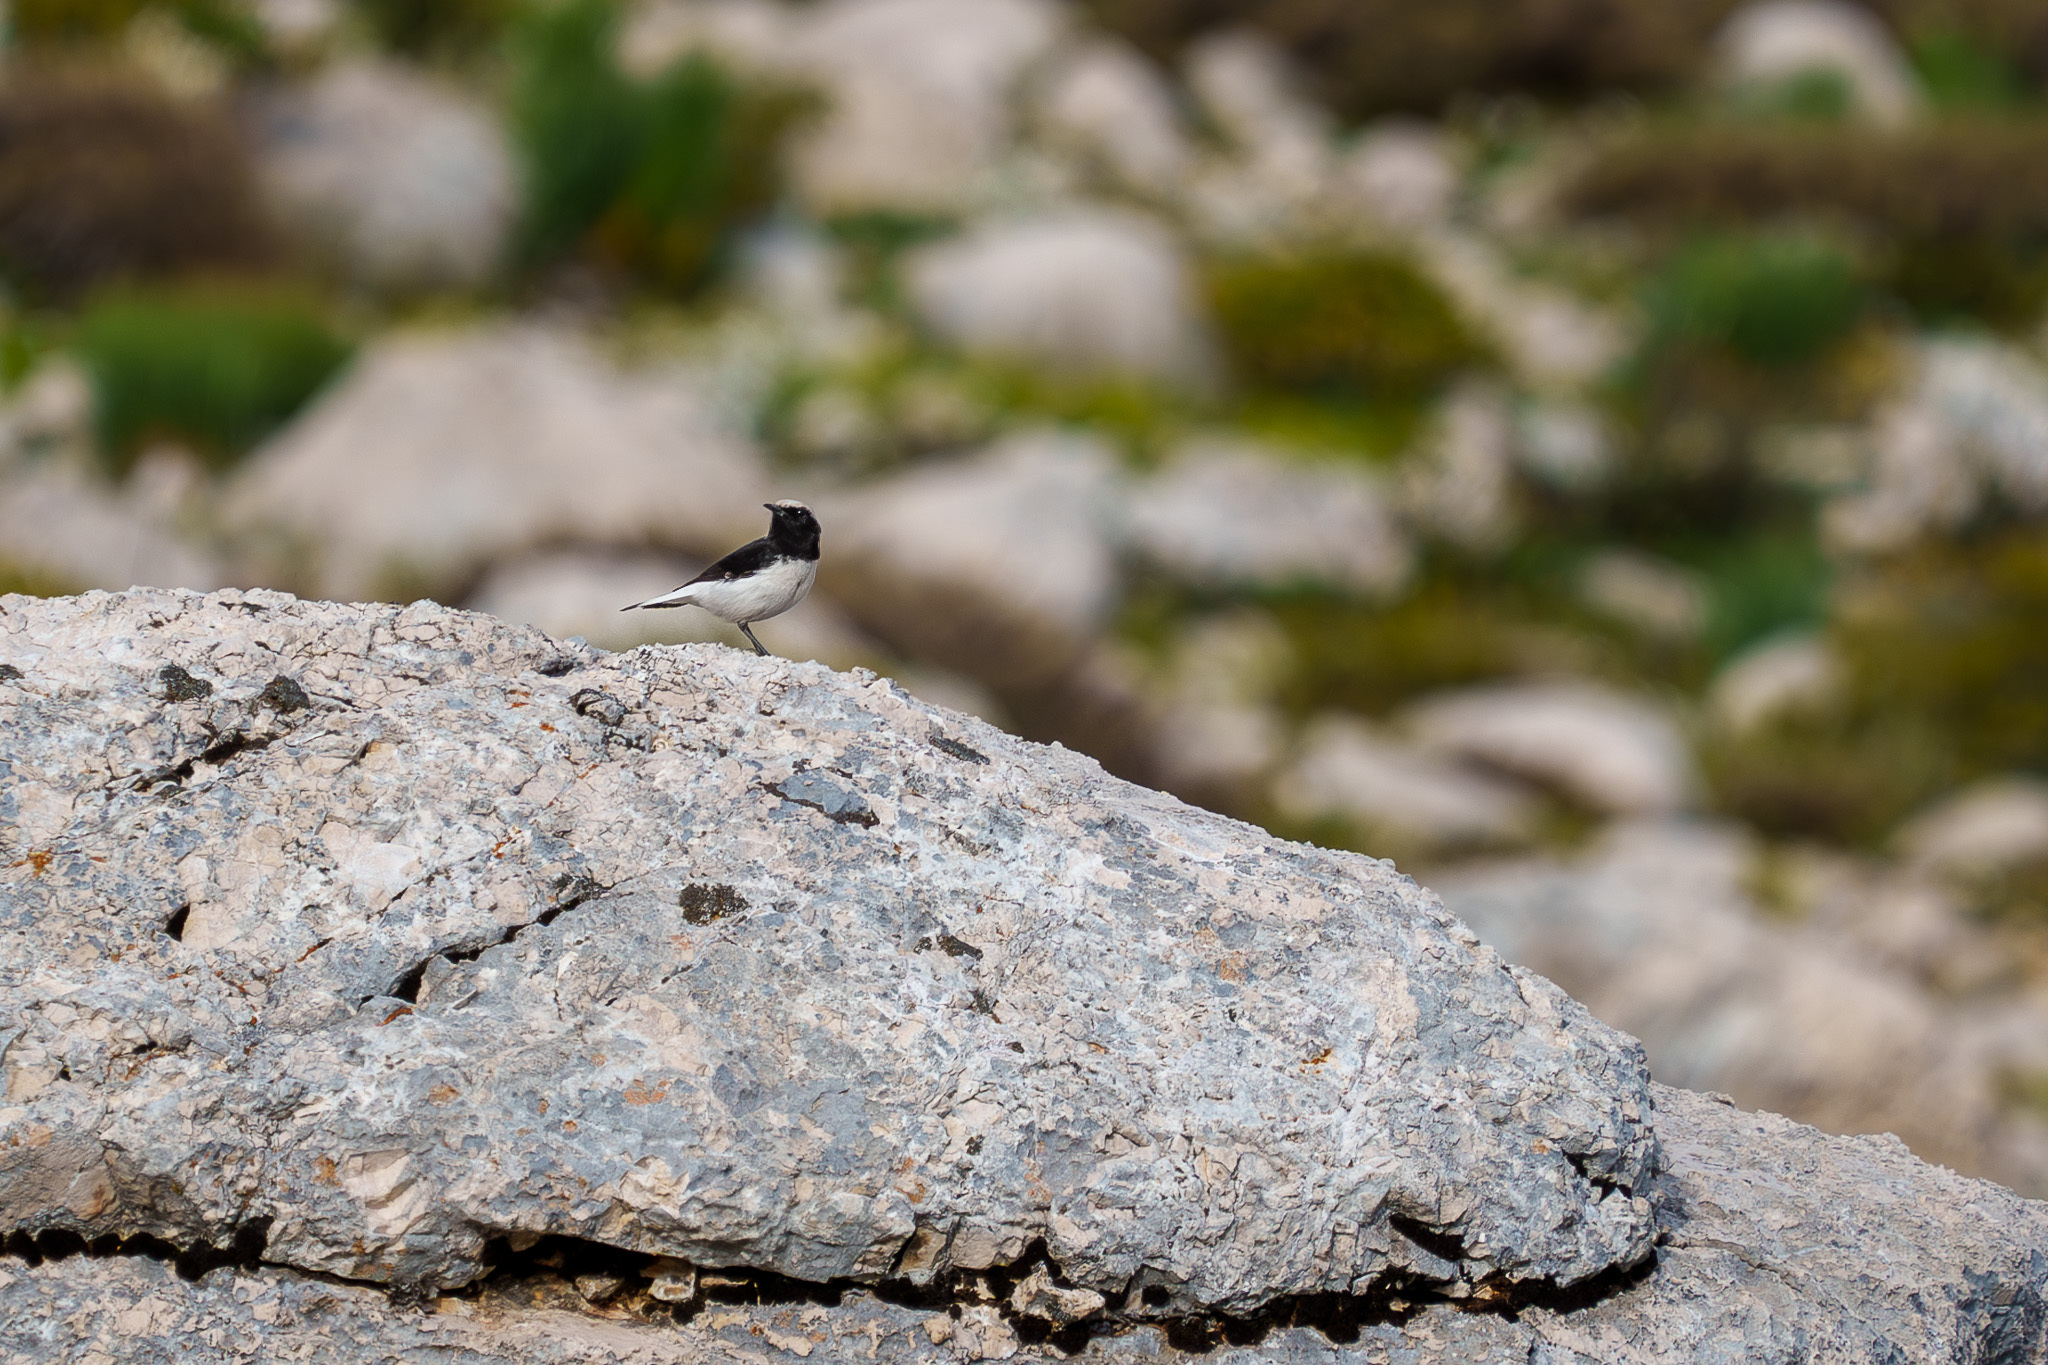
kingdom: Animalia
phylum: Chordata
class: Aves
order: Passeriformes
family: Muscicapidae
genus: Oenanthe
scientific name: Oenanthe finschii
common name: Finsch's wheatear
